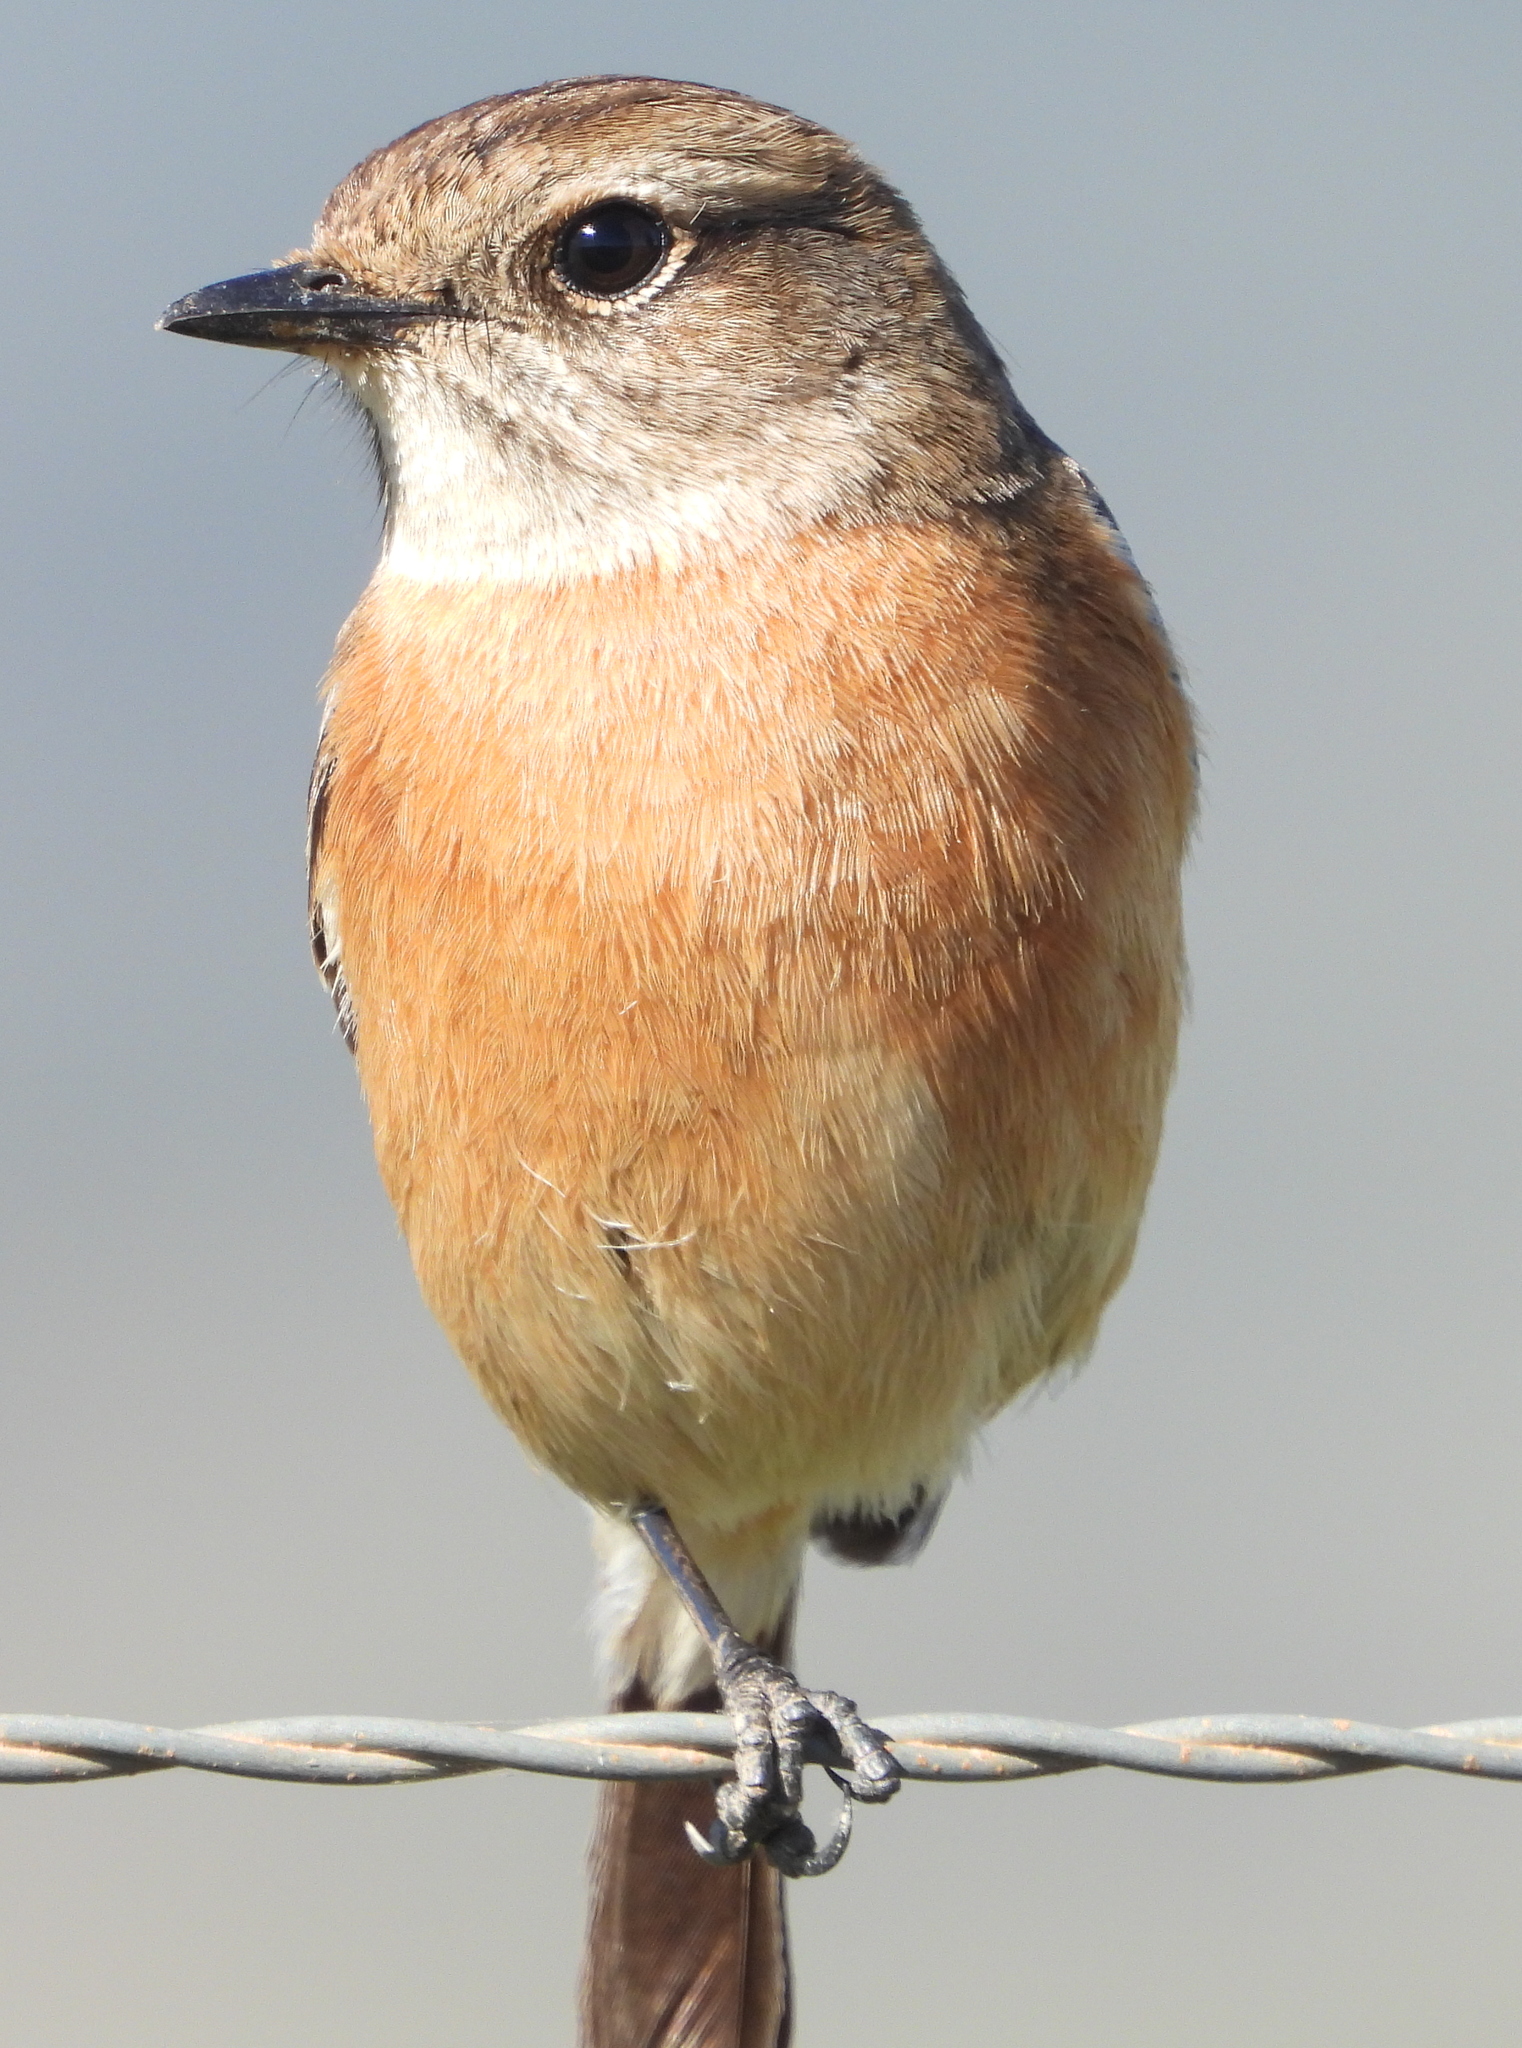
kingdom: Animalia
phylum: Chordata
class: Aves
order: Passeriformes
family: Muscicapidae
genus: Saxicola
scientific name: Saxicola torquatus
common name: African stonechat
